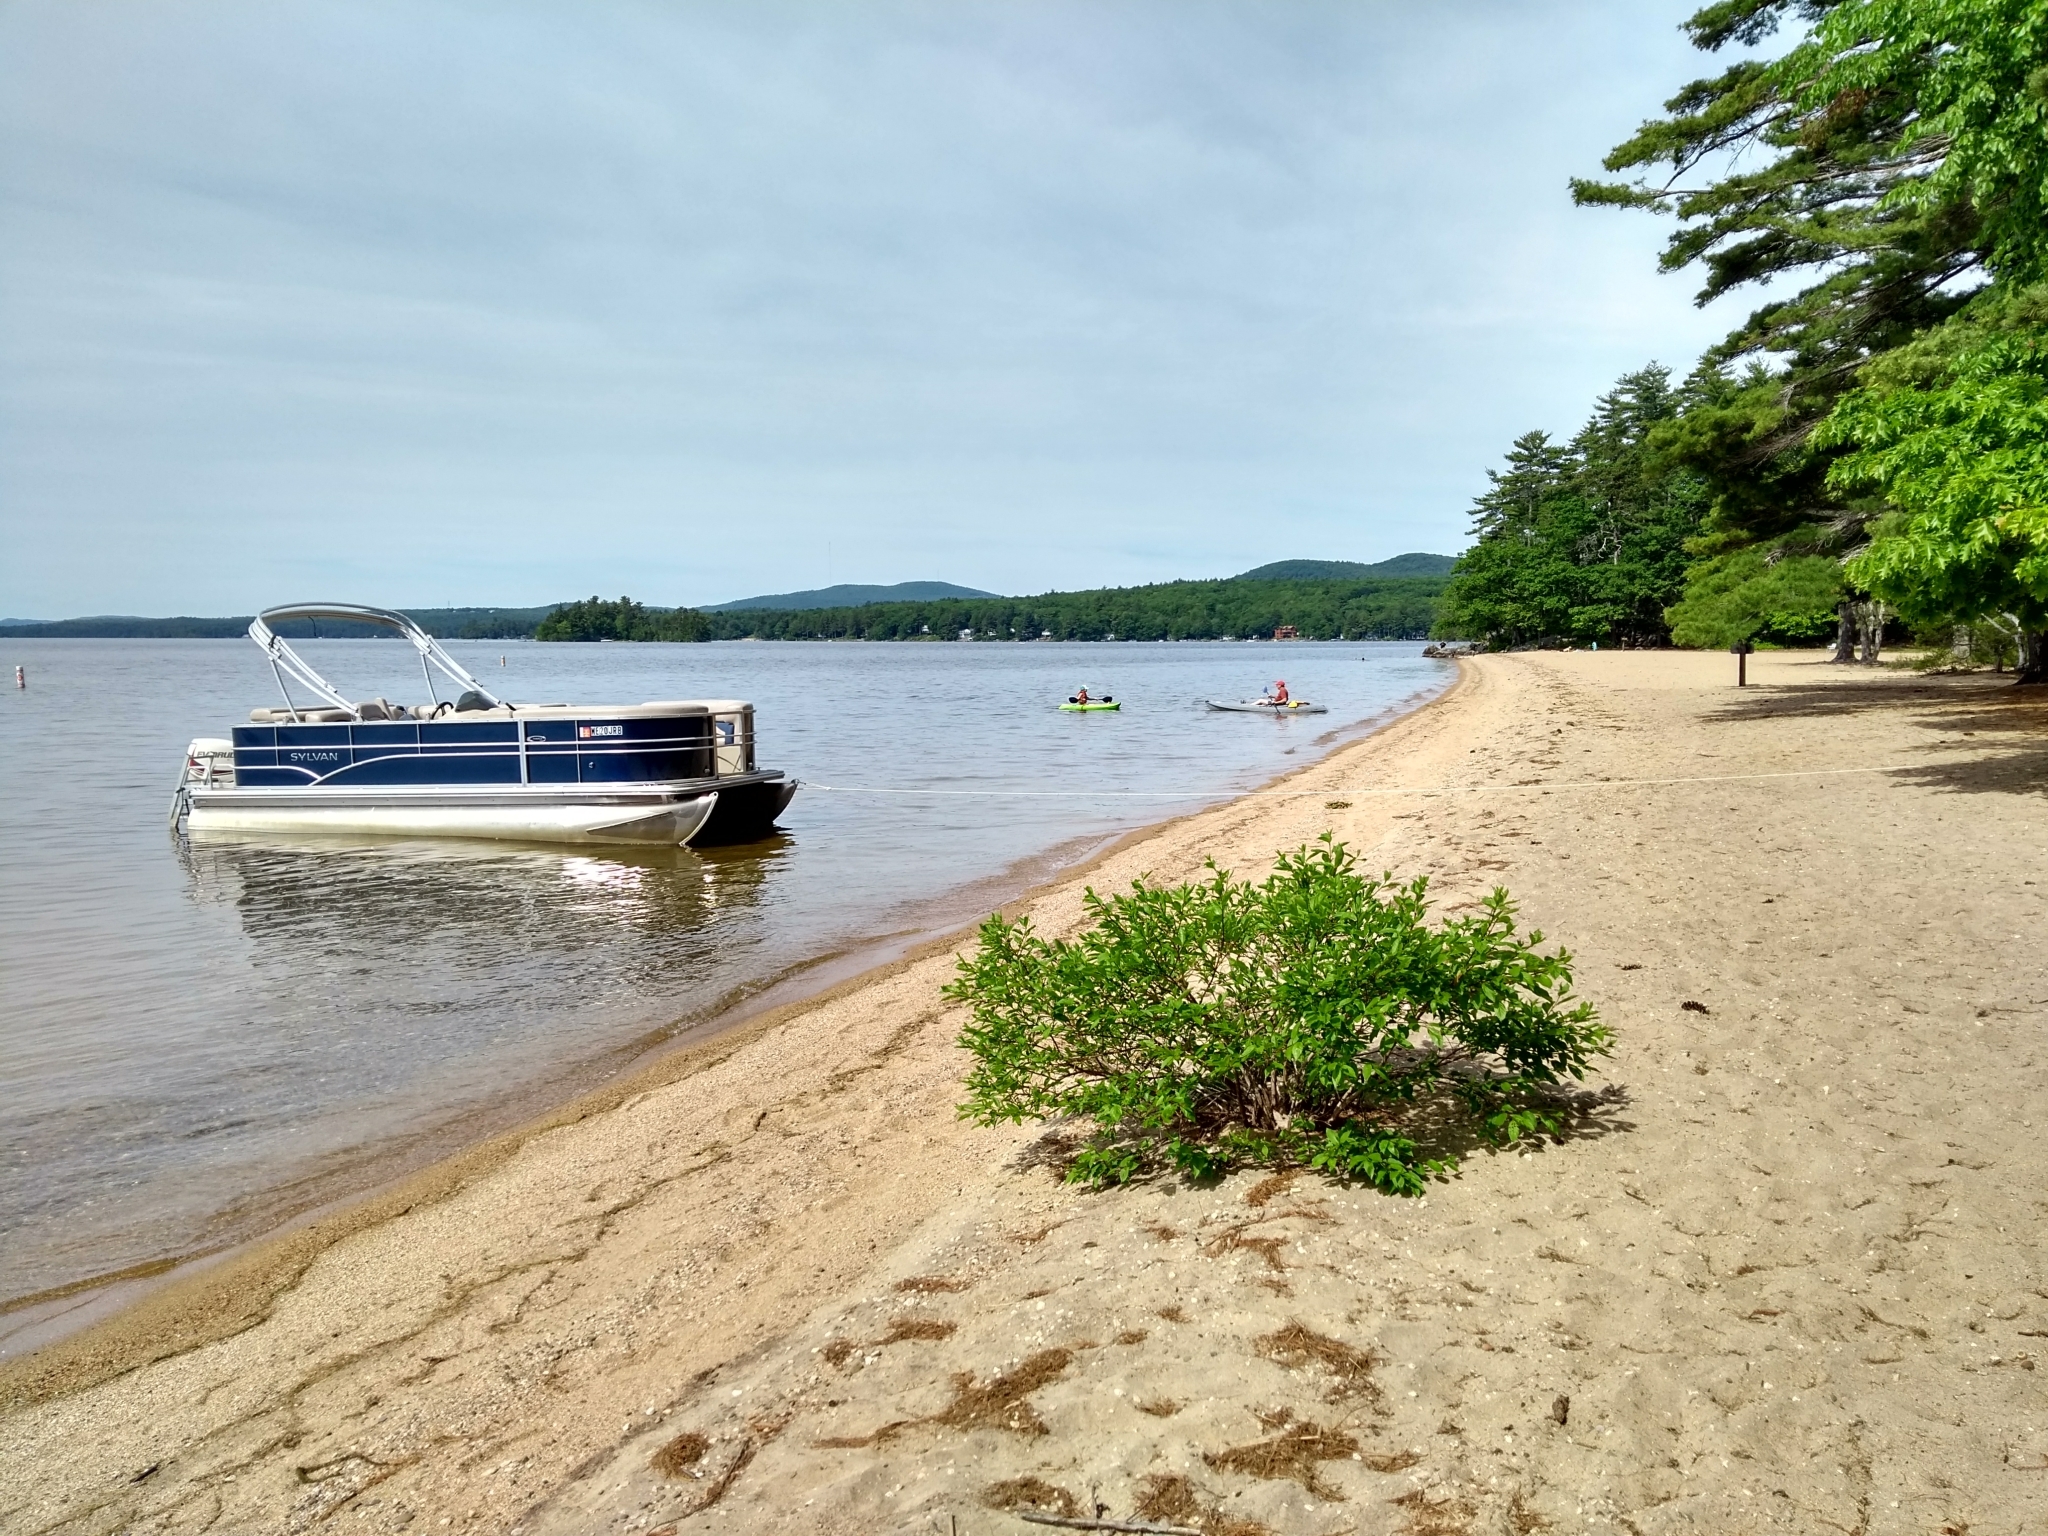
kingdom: Plantae
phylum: Tracheophyta
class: Magnoliopsida
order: Gentianales
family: Rubiaceae
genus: Cephalanthus
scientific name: Cephalanthus occidentalis
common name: Button-willow
